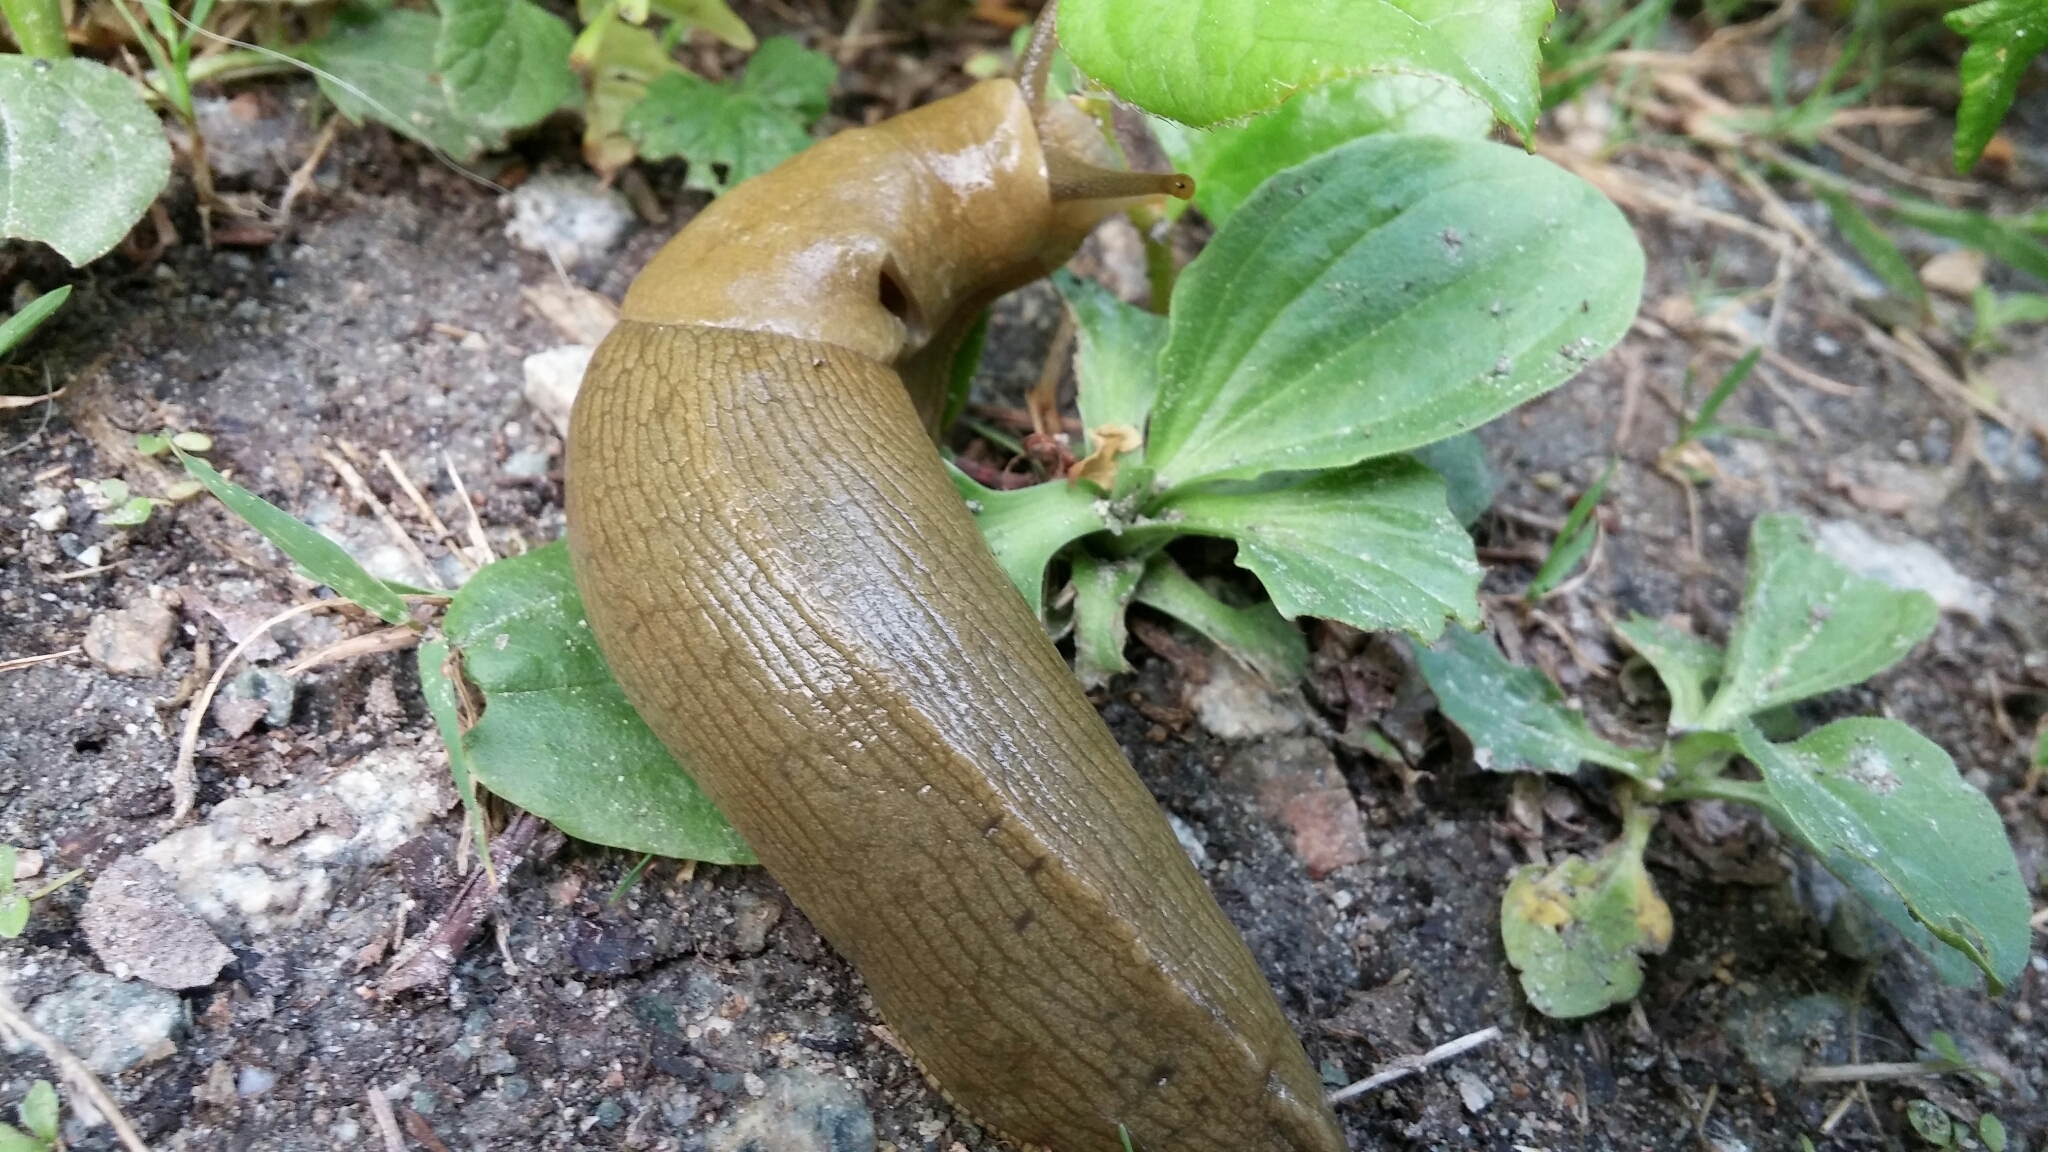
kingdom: Animalia
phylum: Mollusca
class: Gastropoda
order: Stylommatophora
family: Ariolimacidae
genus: Ariolimax
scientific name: Ariolimax columbianus
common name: Pacific banana slug
